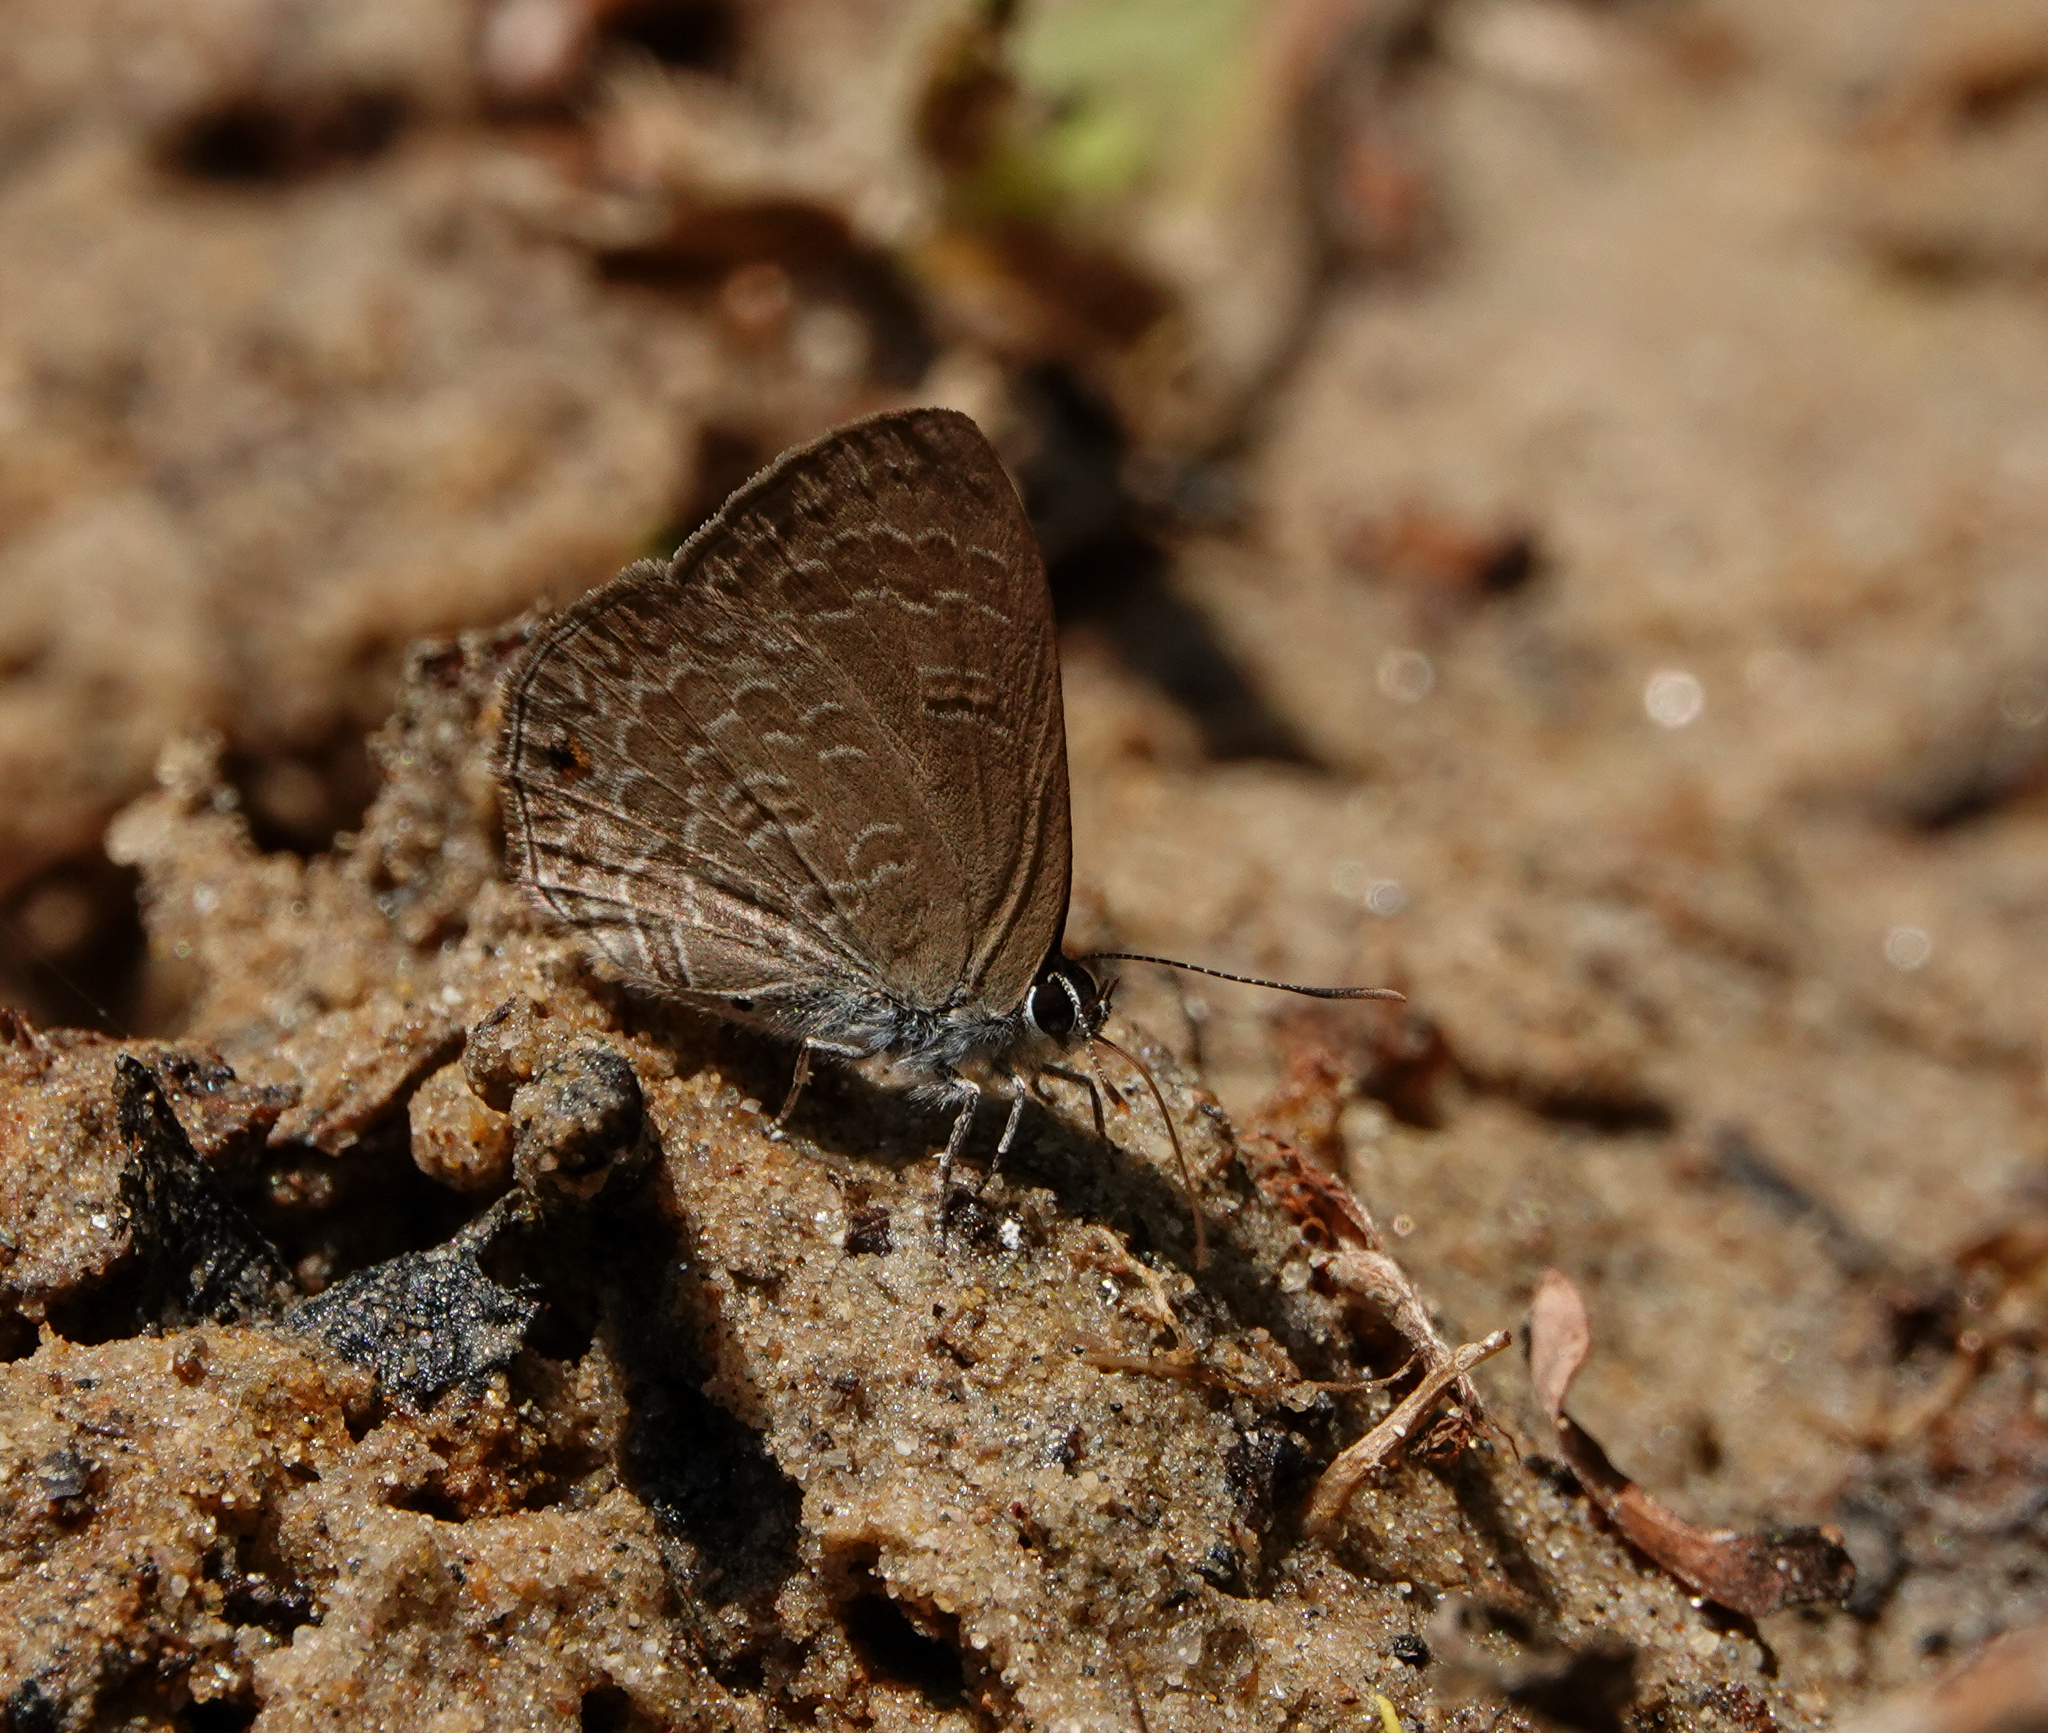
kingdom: Animalia
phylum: Arthropoda
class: Insecta
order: Lepidoptera
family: Lycaenidae
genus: Anthene
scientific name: Anthene emolus
